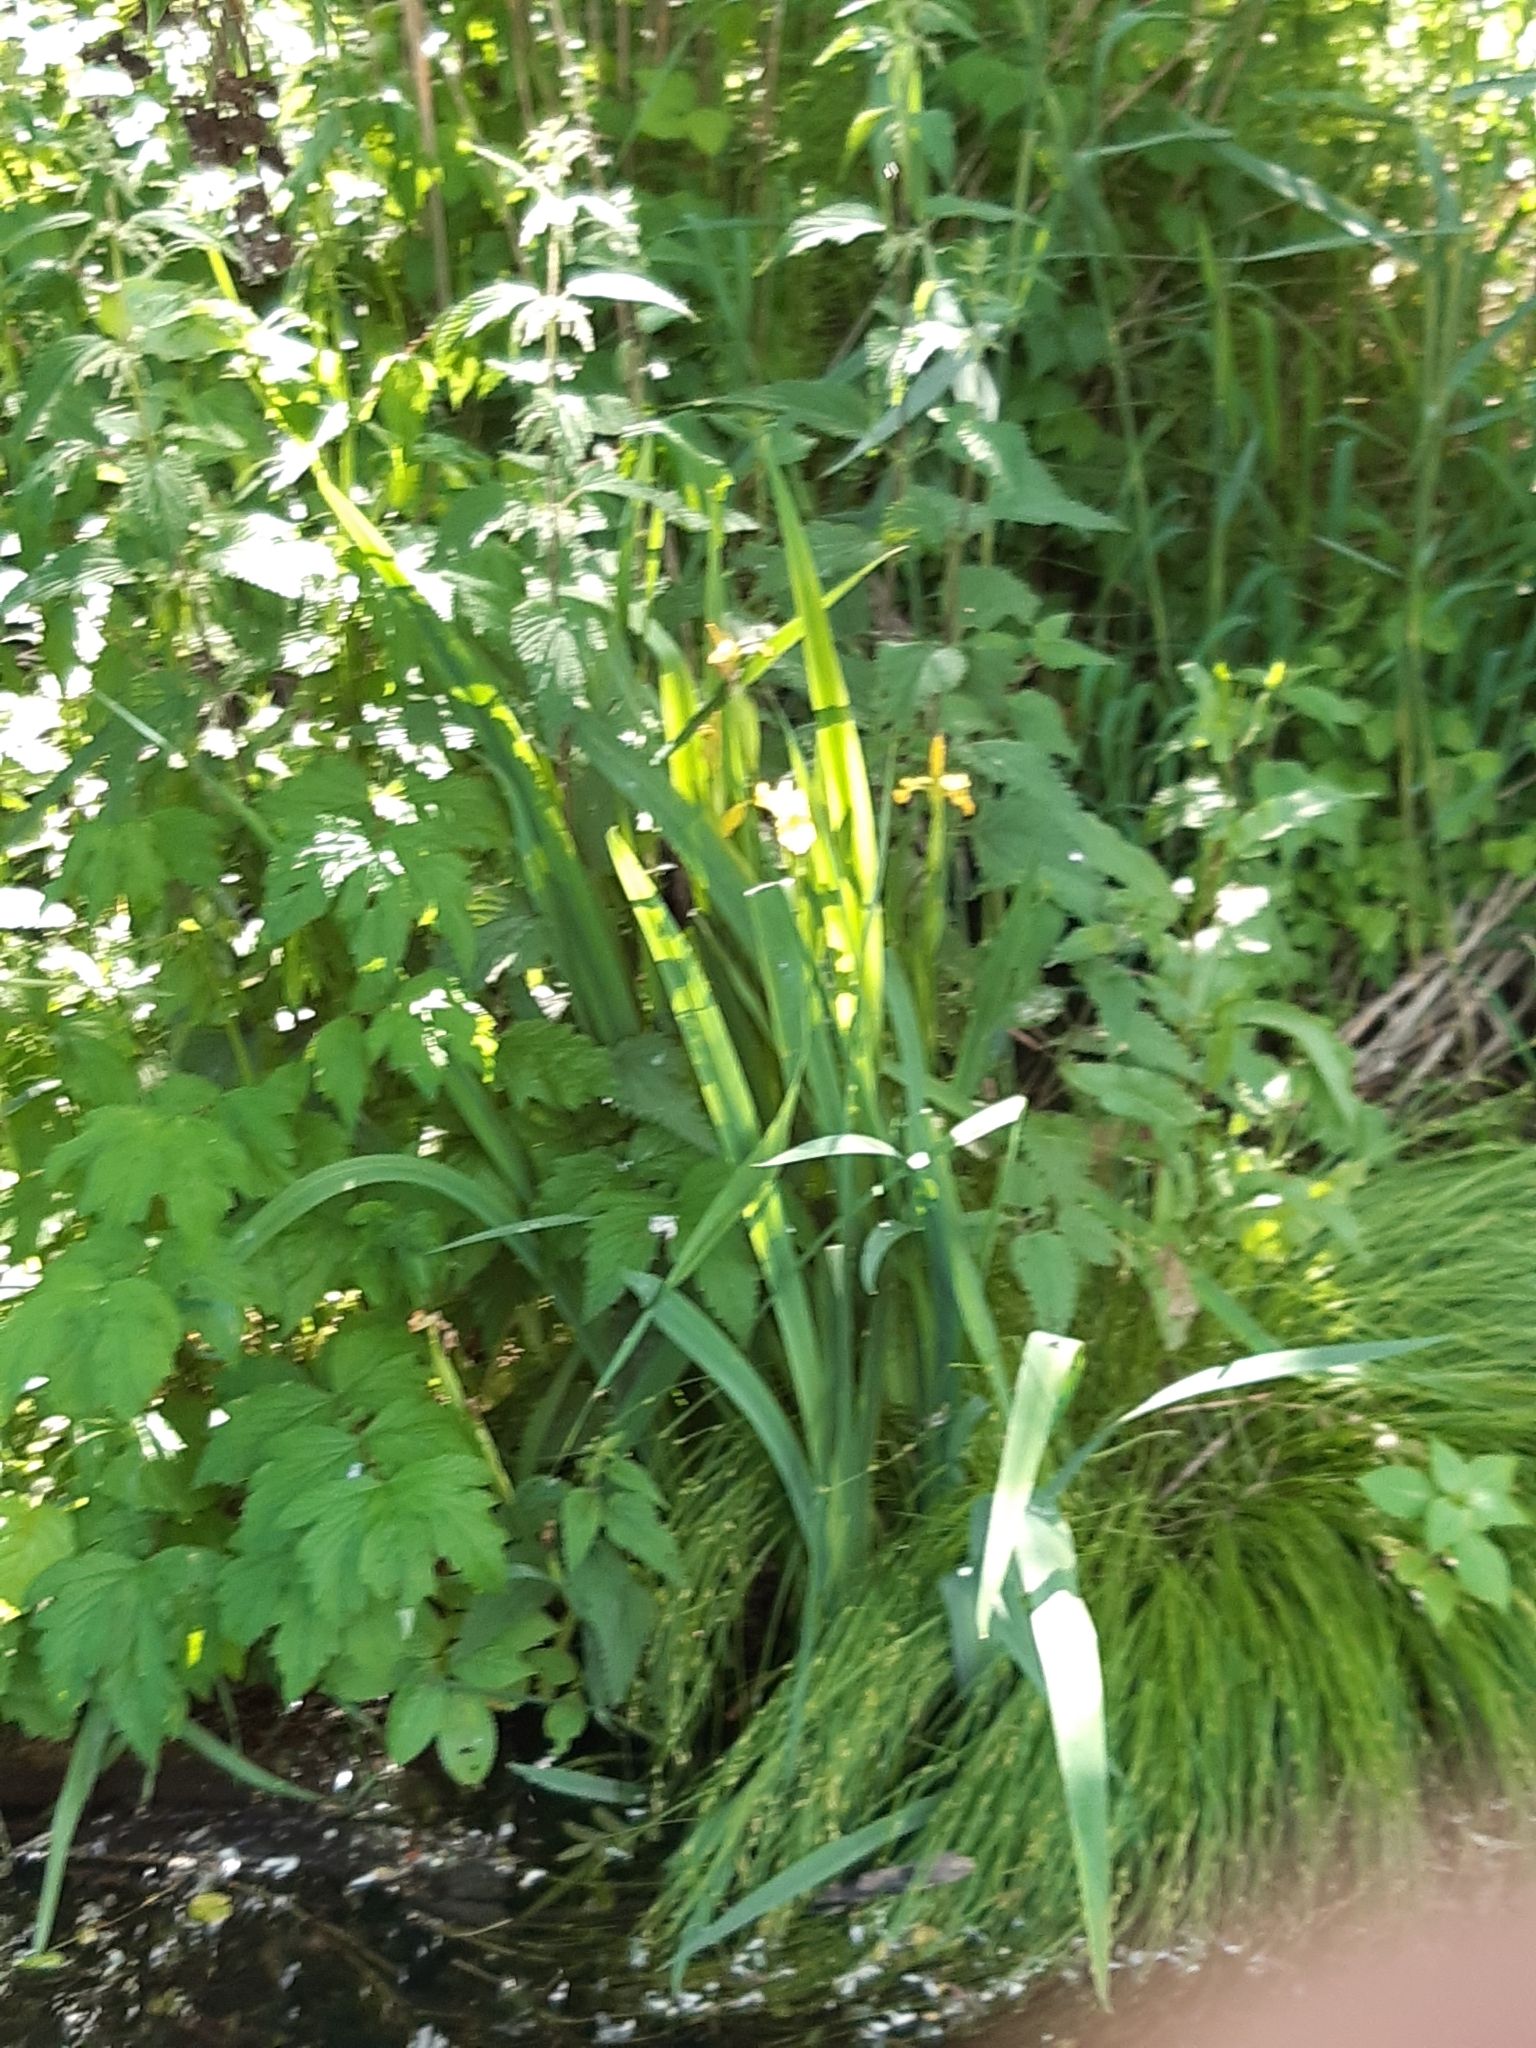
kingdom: Plantae
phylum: Tracheophyta
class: Liliopsida
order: Asparagales
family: Iridaceae
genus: Iris
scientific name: Iris pseudacorus
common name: Yellow flag
